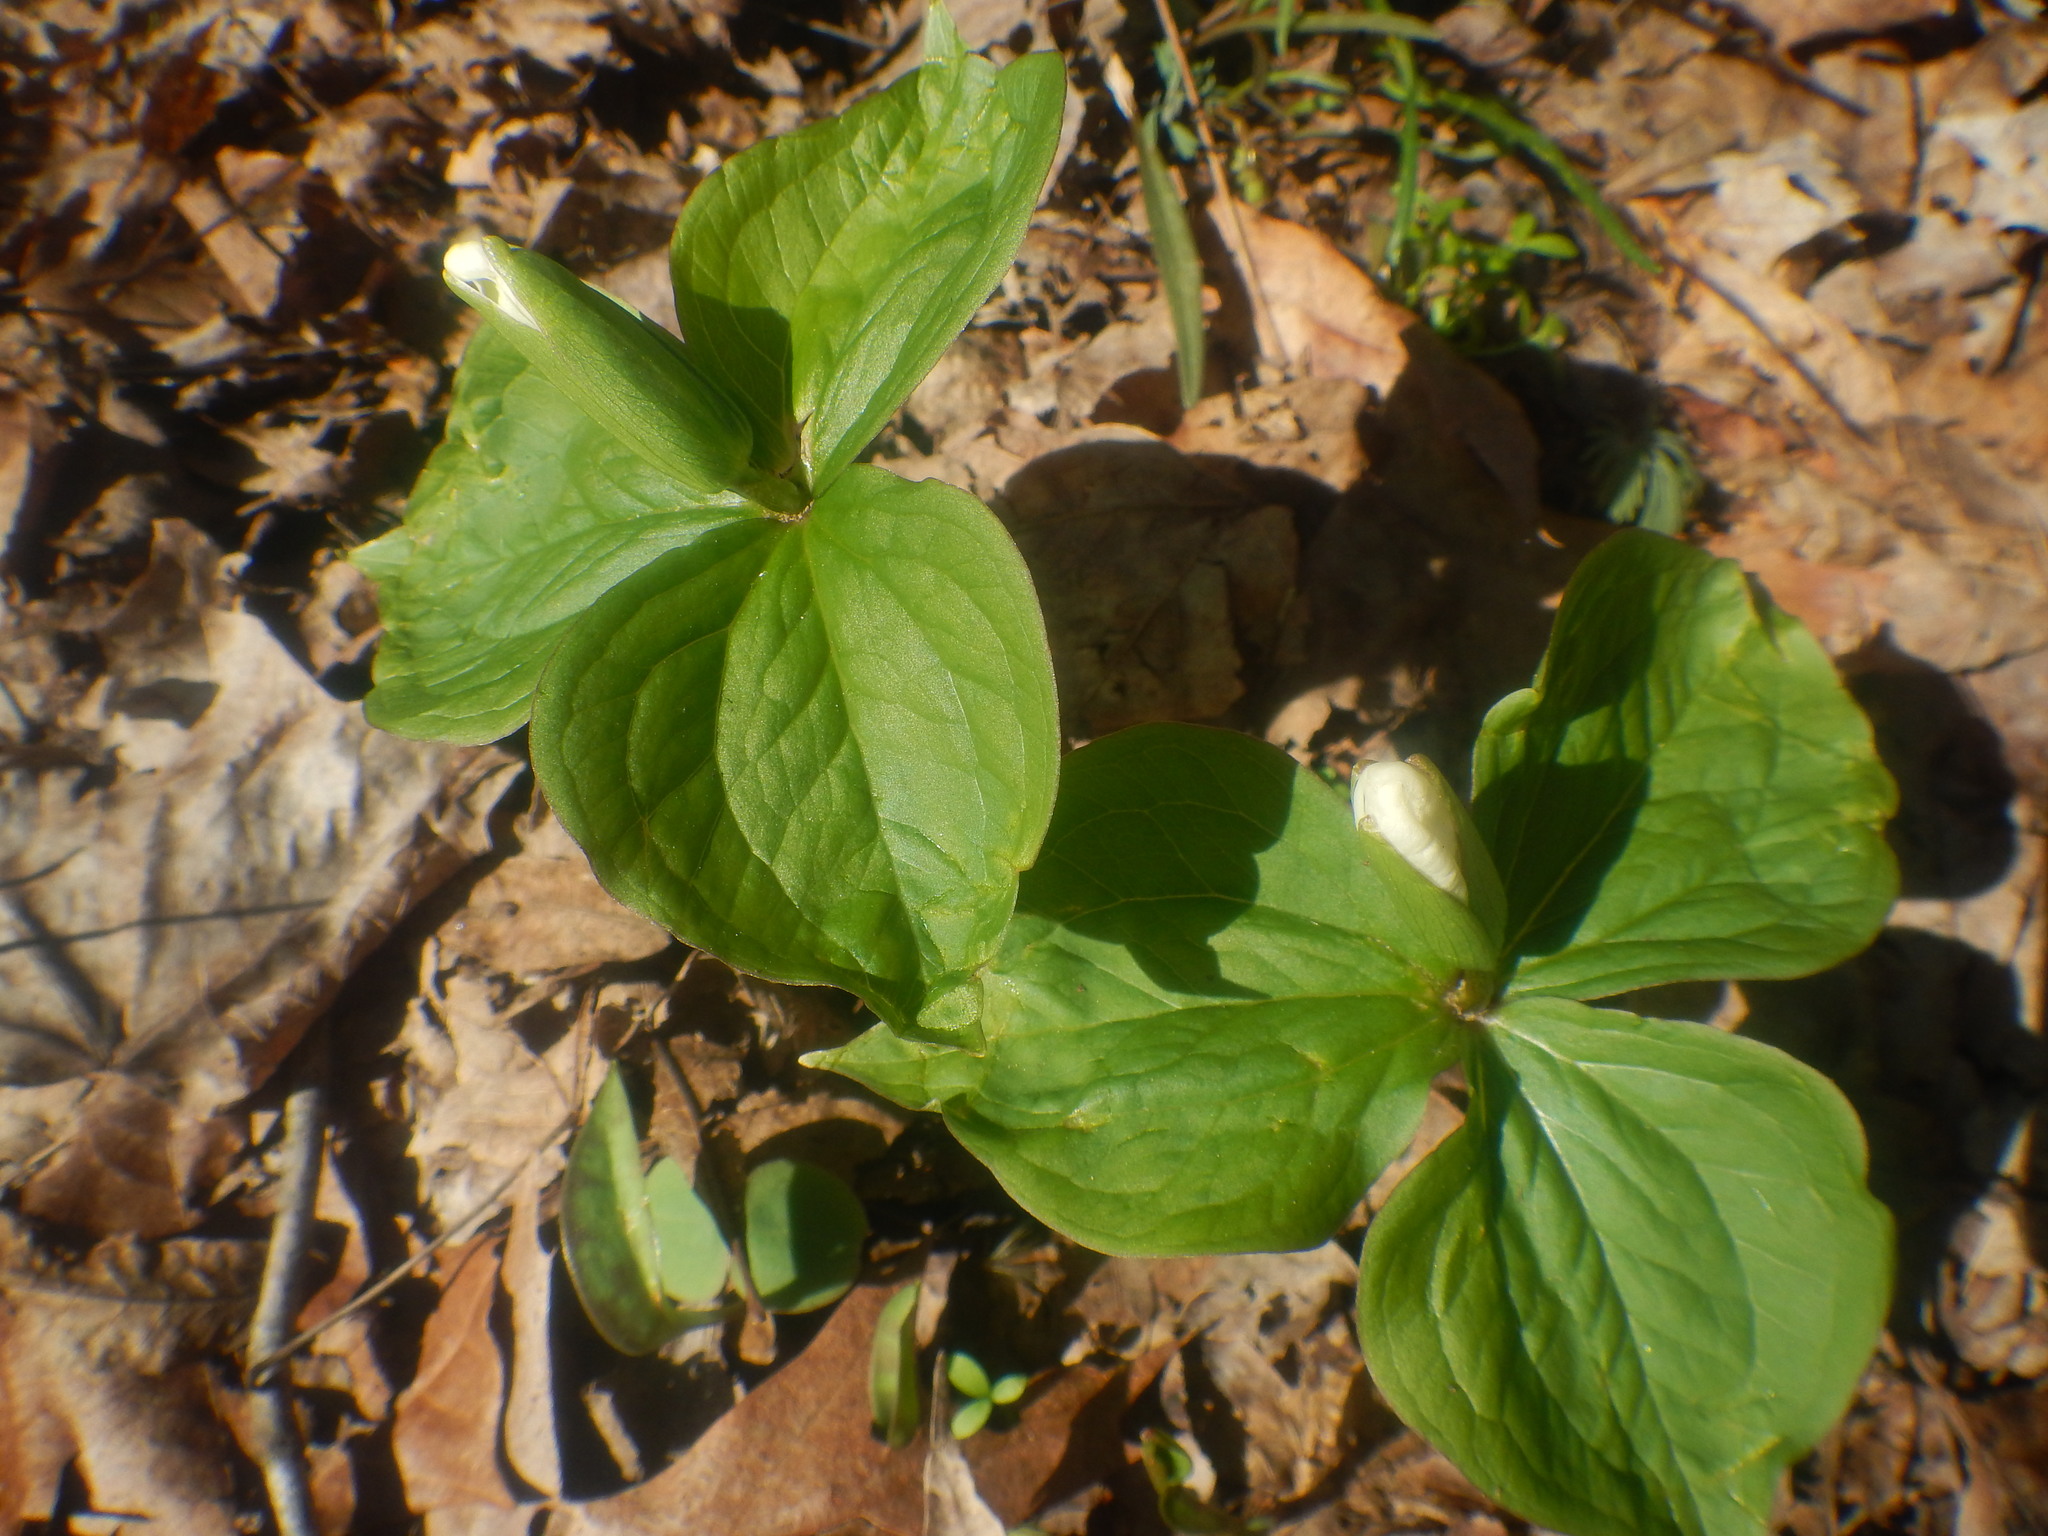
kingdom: Plantae
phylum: Tracheophyta
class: Liliopsida
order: Liliales
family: Melanthiaceae
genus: Trillium
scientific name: Trillium grandiflorum
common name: Great white trillium
